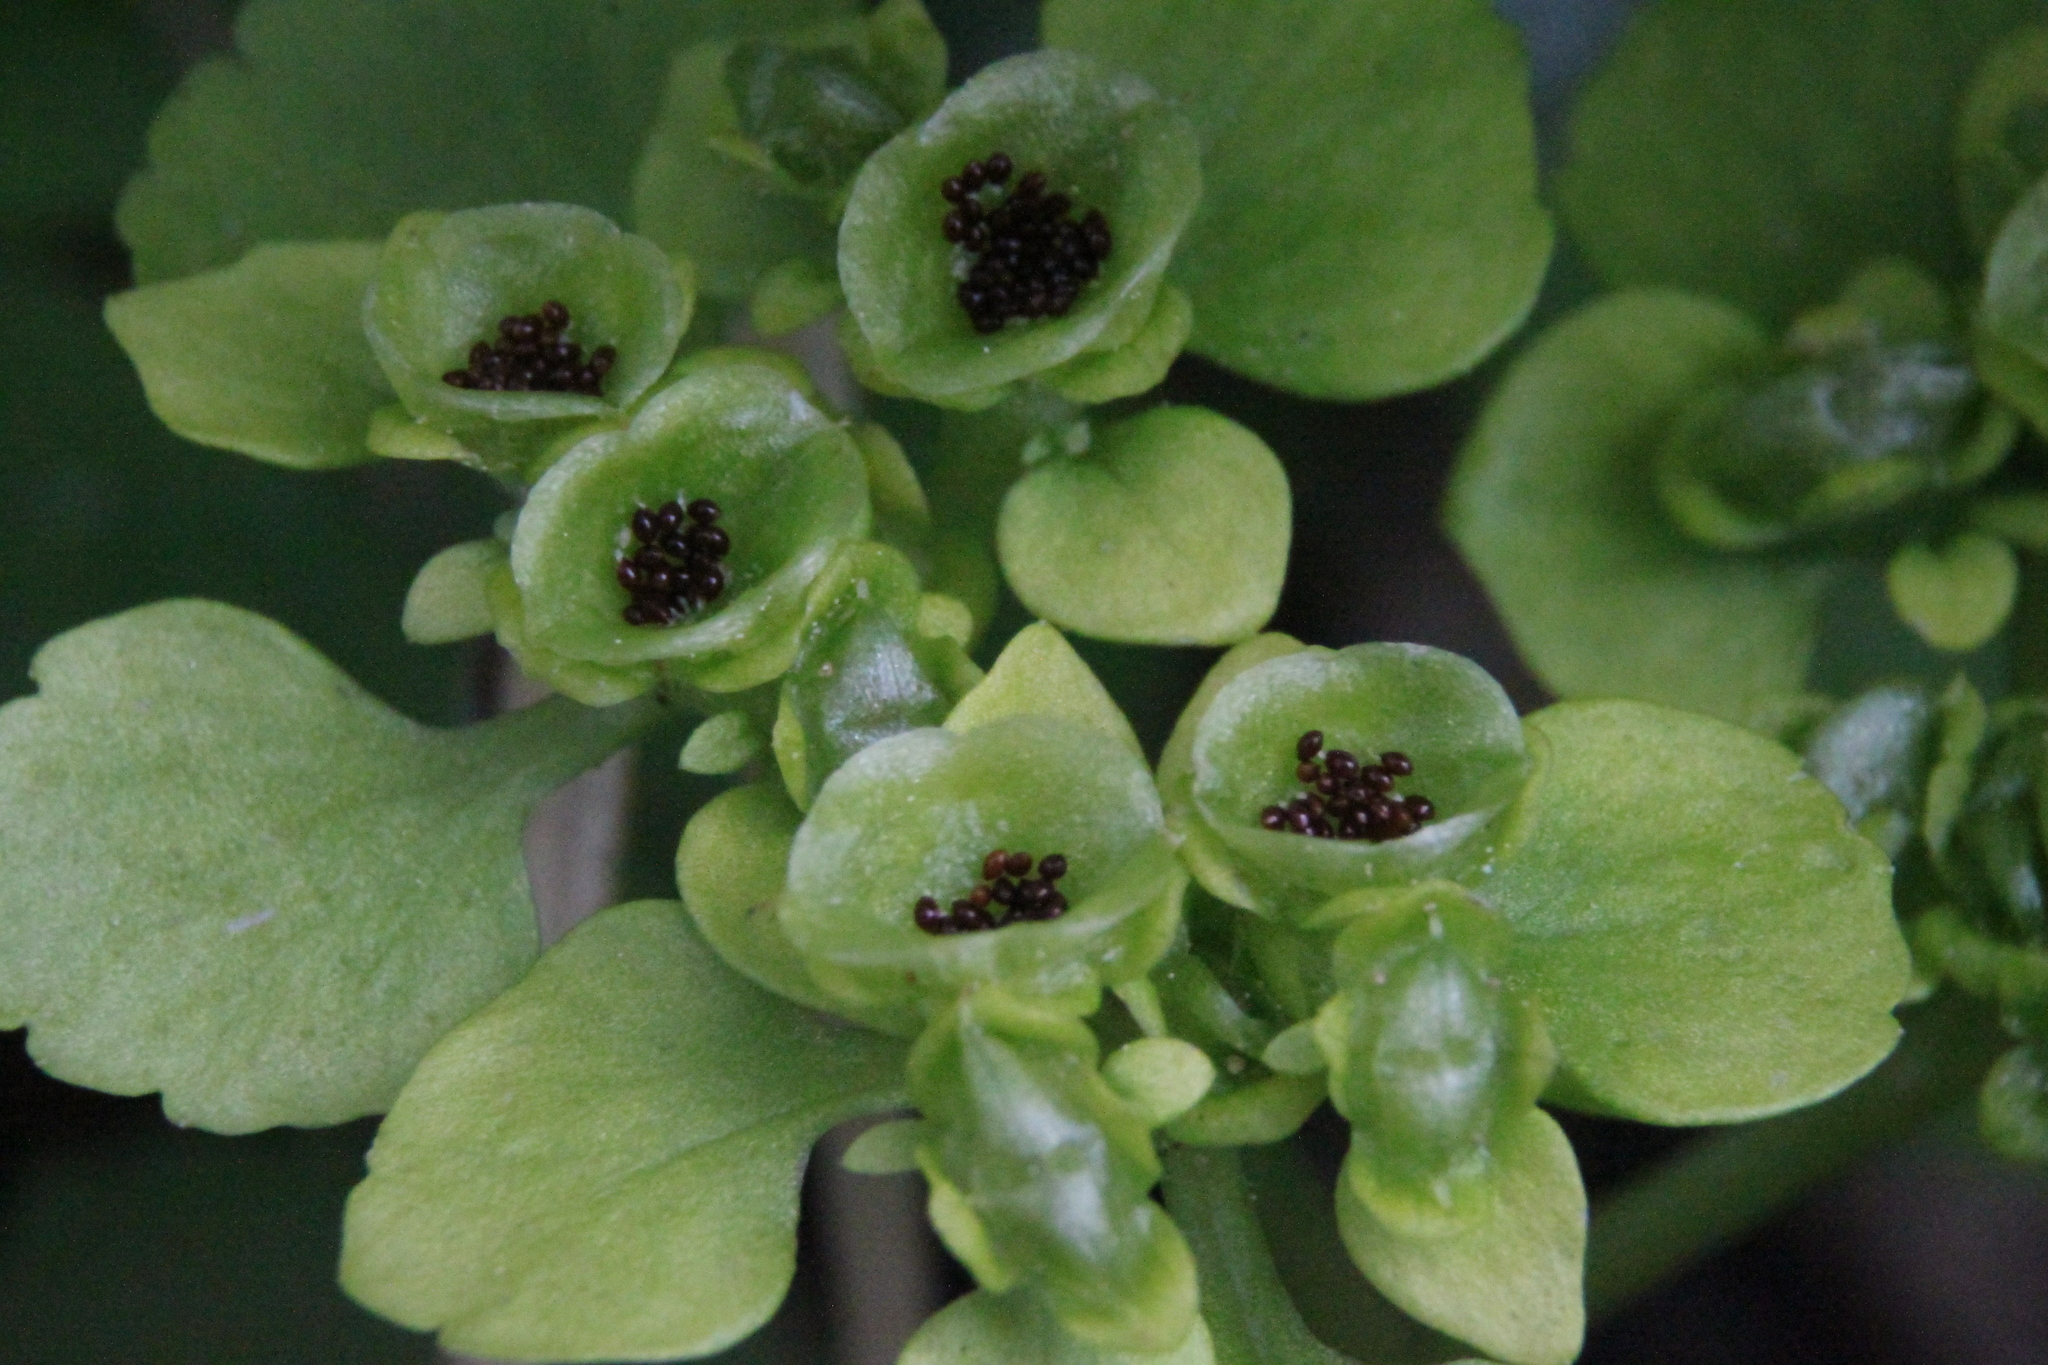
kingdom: Plantae
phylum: Tracheophyta
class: Magnoliopsida
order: Saxifragales
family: Saxifragaceae
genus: Chrysosplenium
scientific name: Chrysosplenium alternifolium
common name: Alternate-leaved golden-saxifrage
